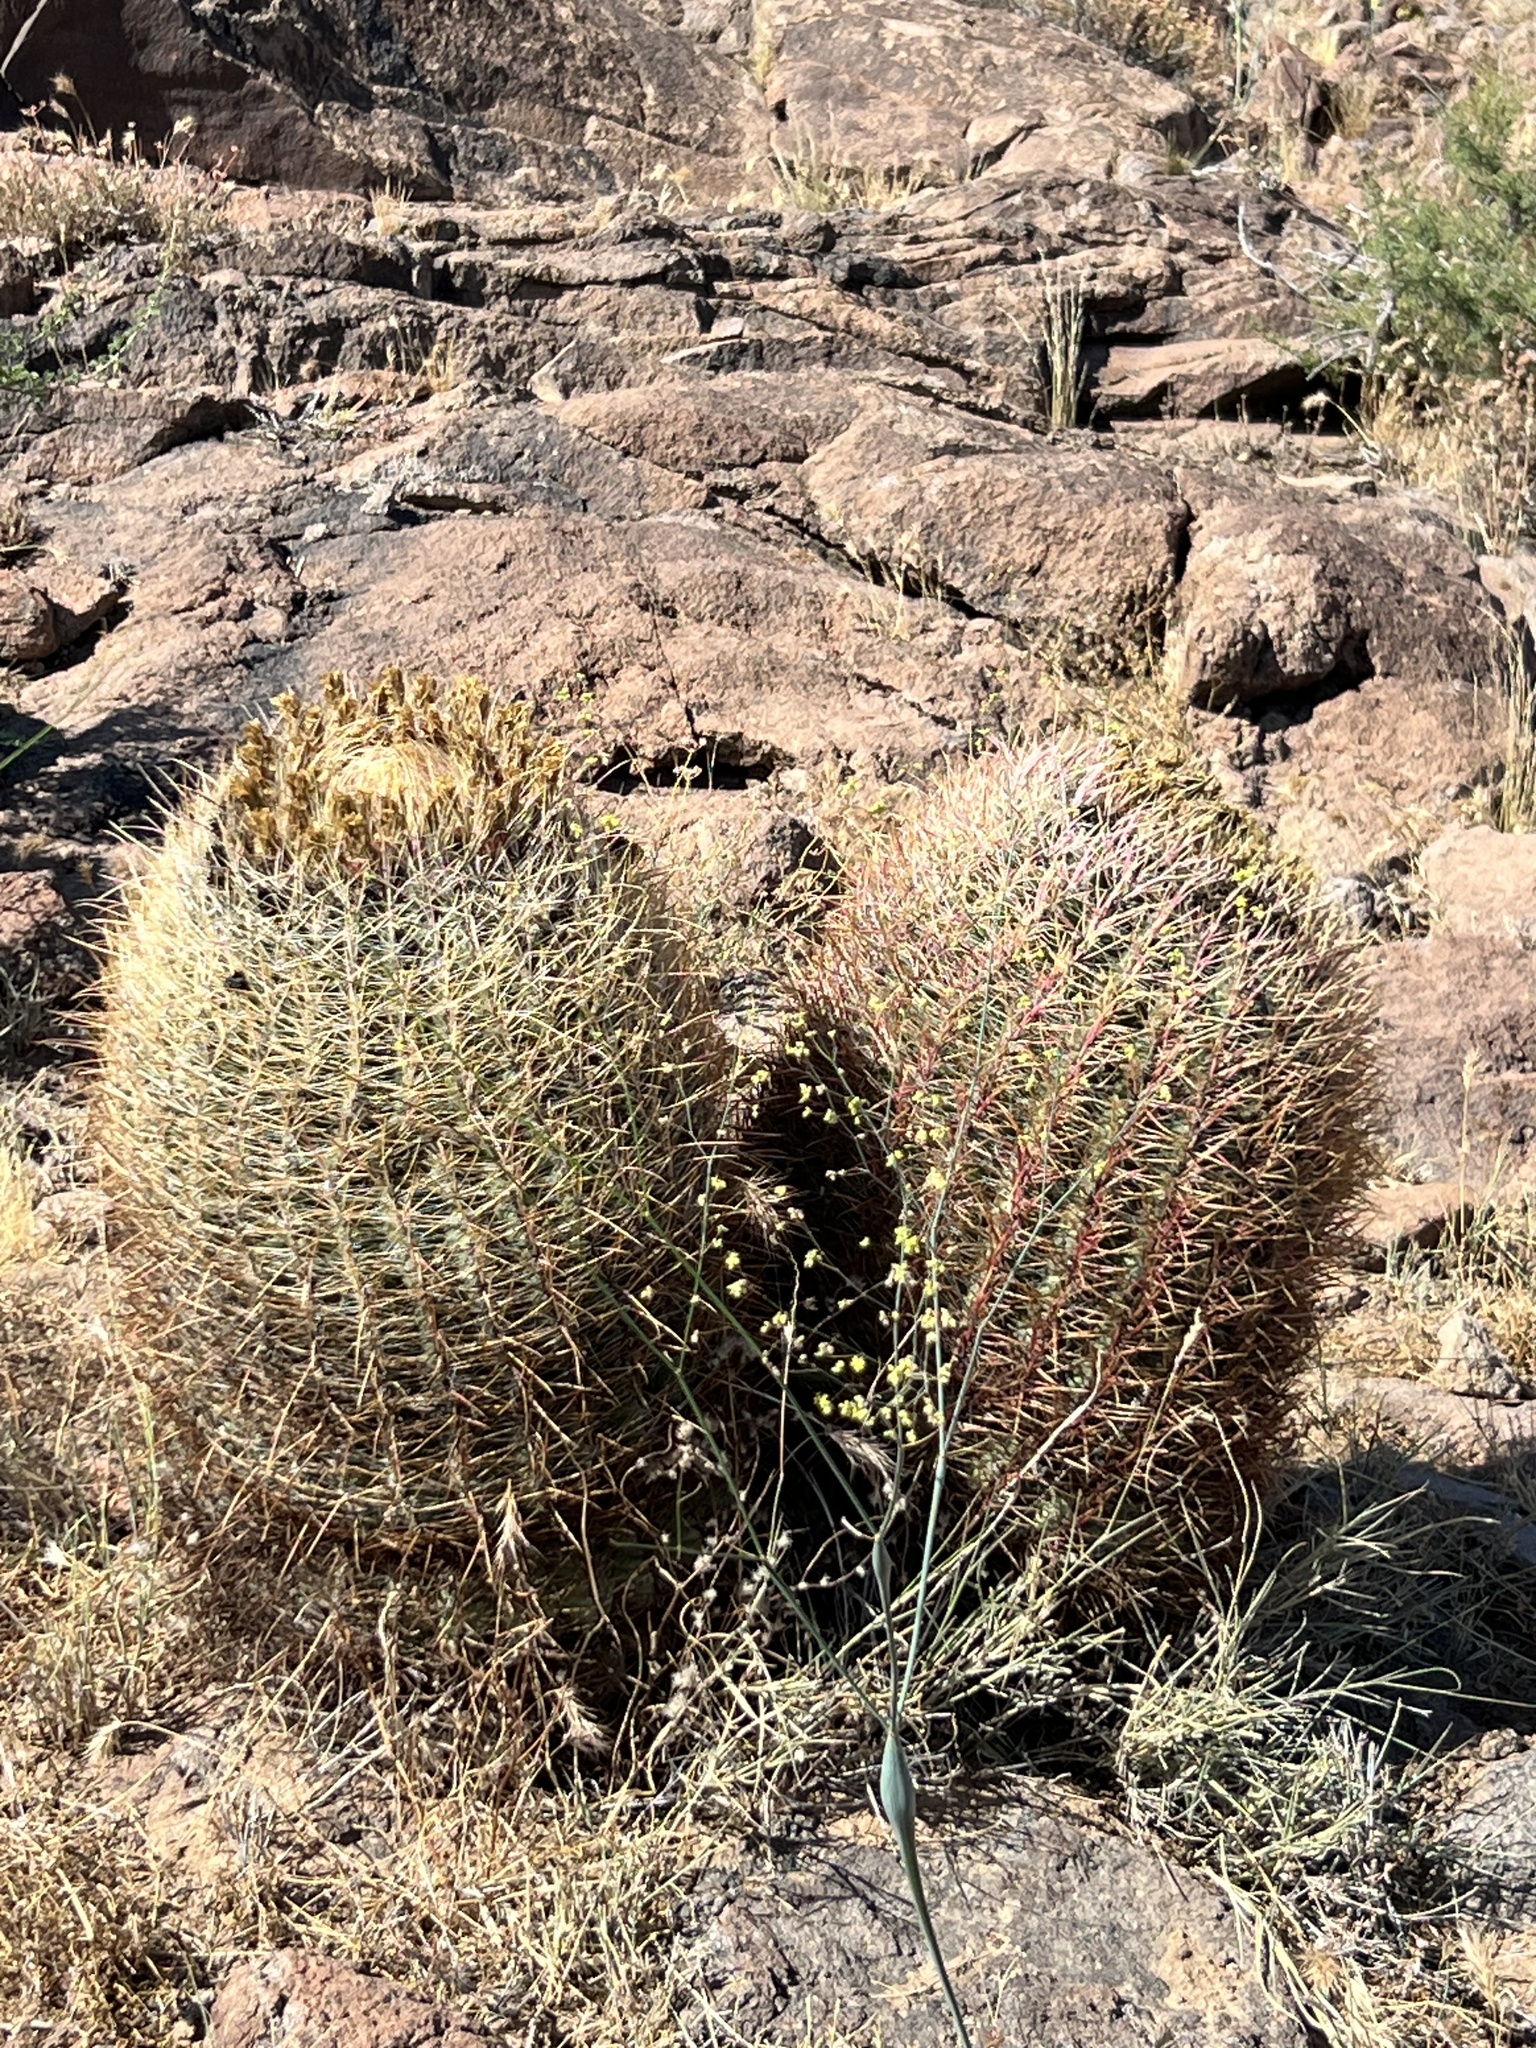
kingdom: Plantae
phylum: Tracheophyta
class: Magnoliopsida
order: Caryophyllales
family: Cactaceae
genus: Ferocactus
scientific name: Ferocactus cylindraceus
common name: California barrel cactus
